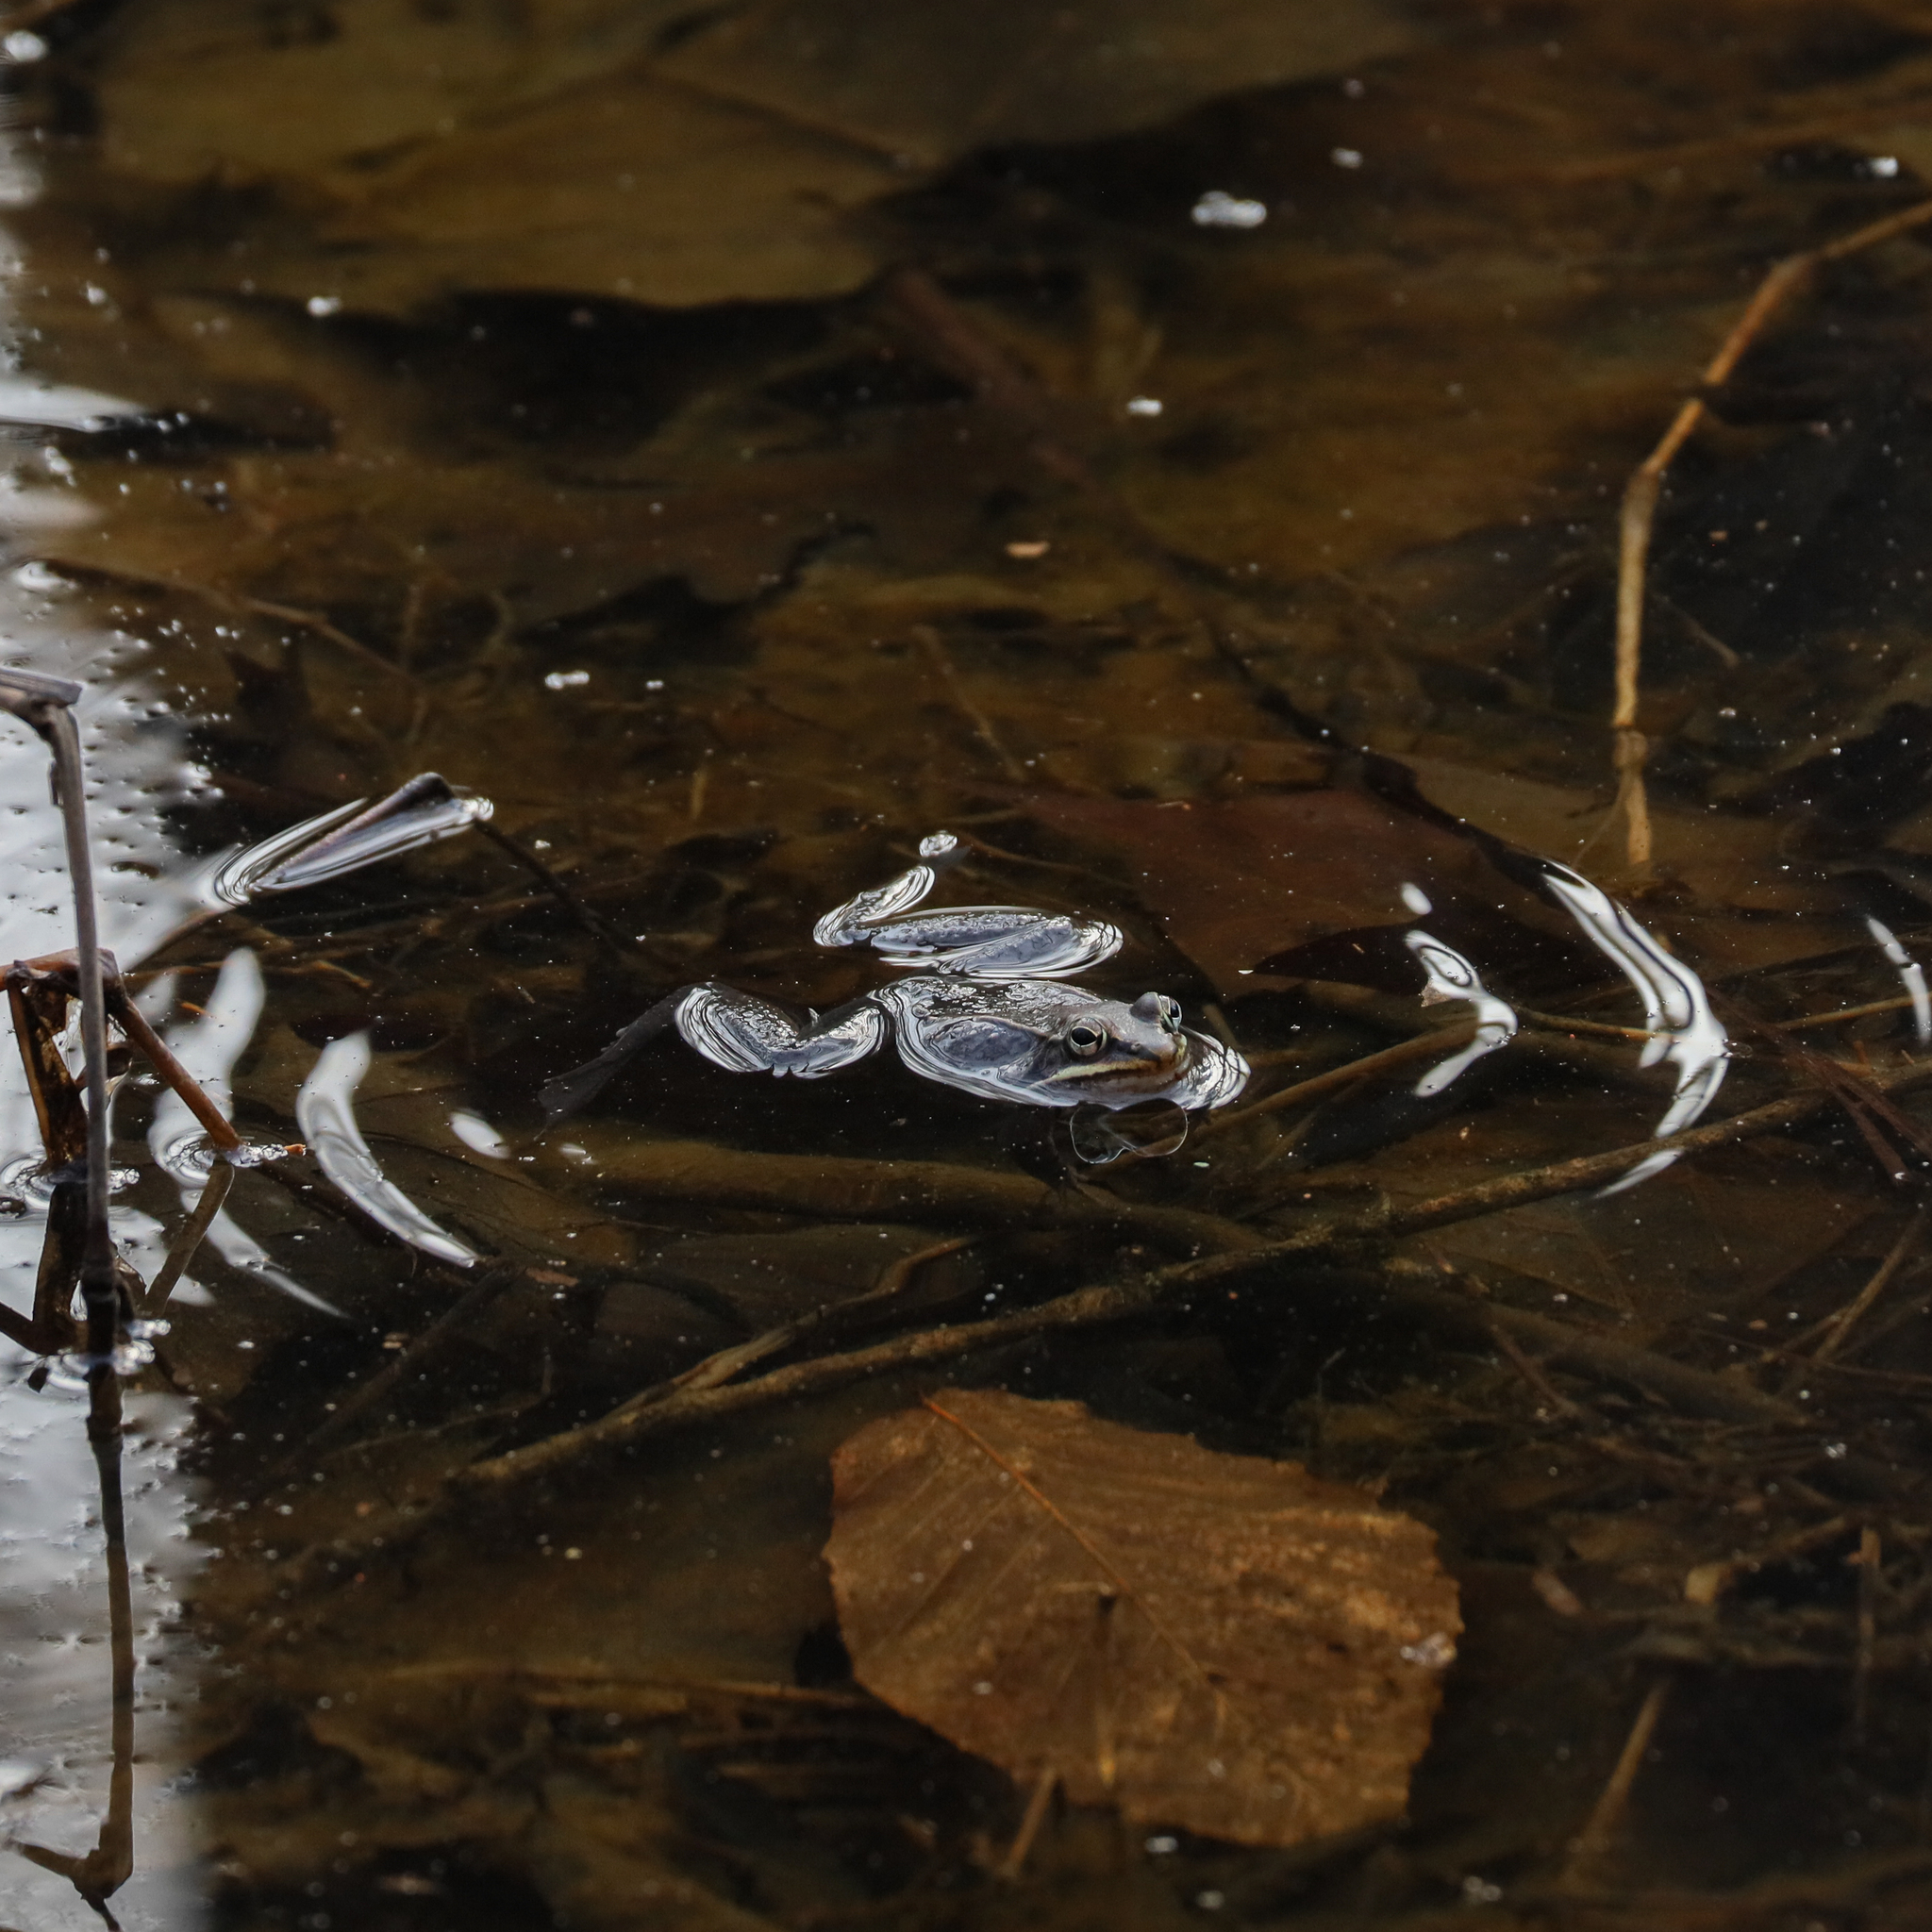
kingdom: Animalia
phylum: Chordata
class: Amphibia
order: Anura
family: Ranidae
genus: Lithobates
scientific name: Lithobates sylvaticus
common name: Wood frog
